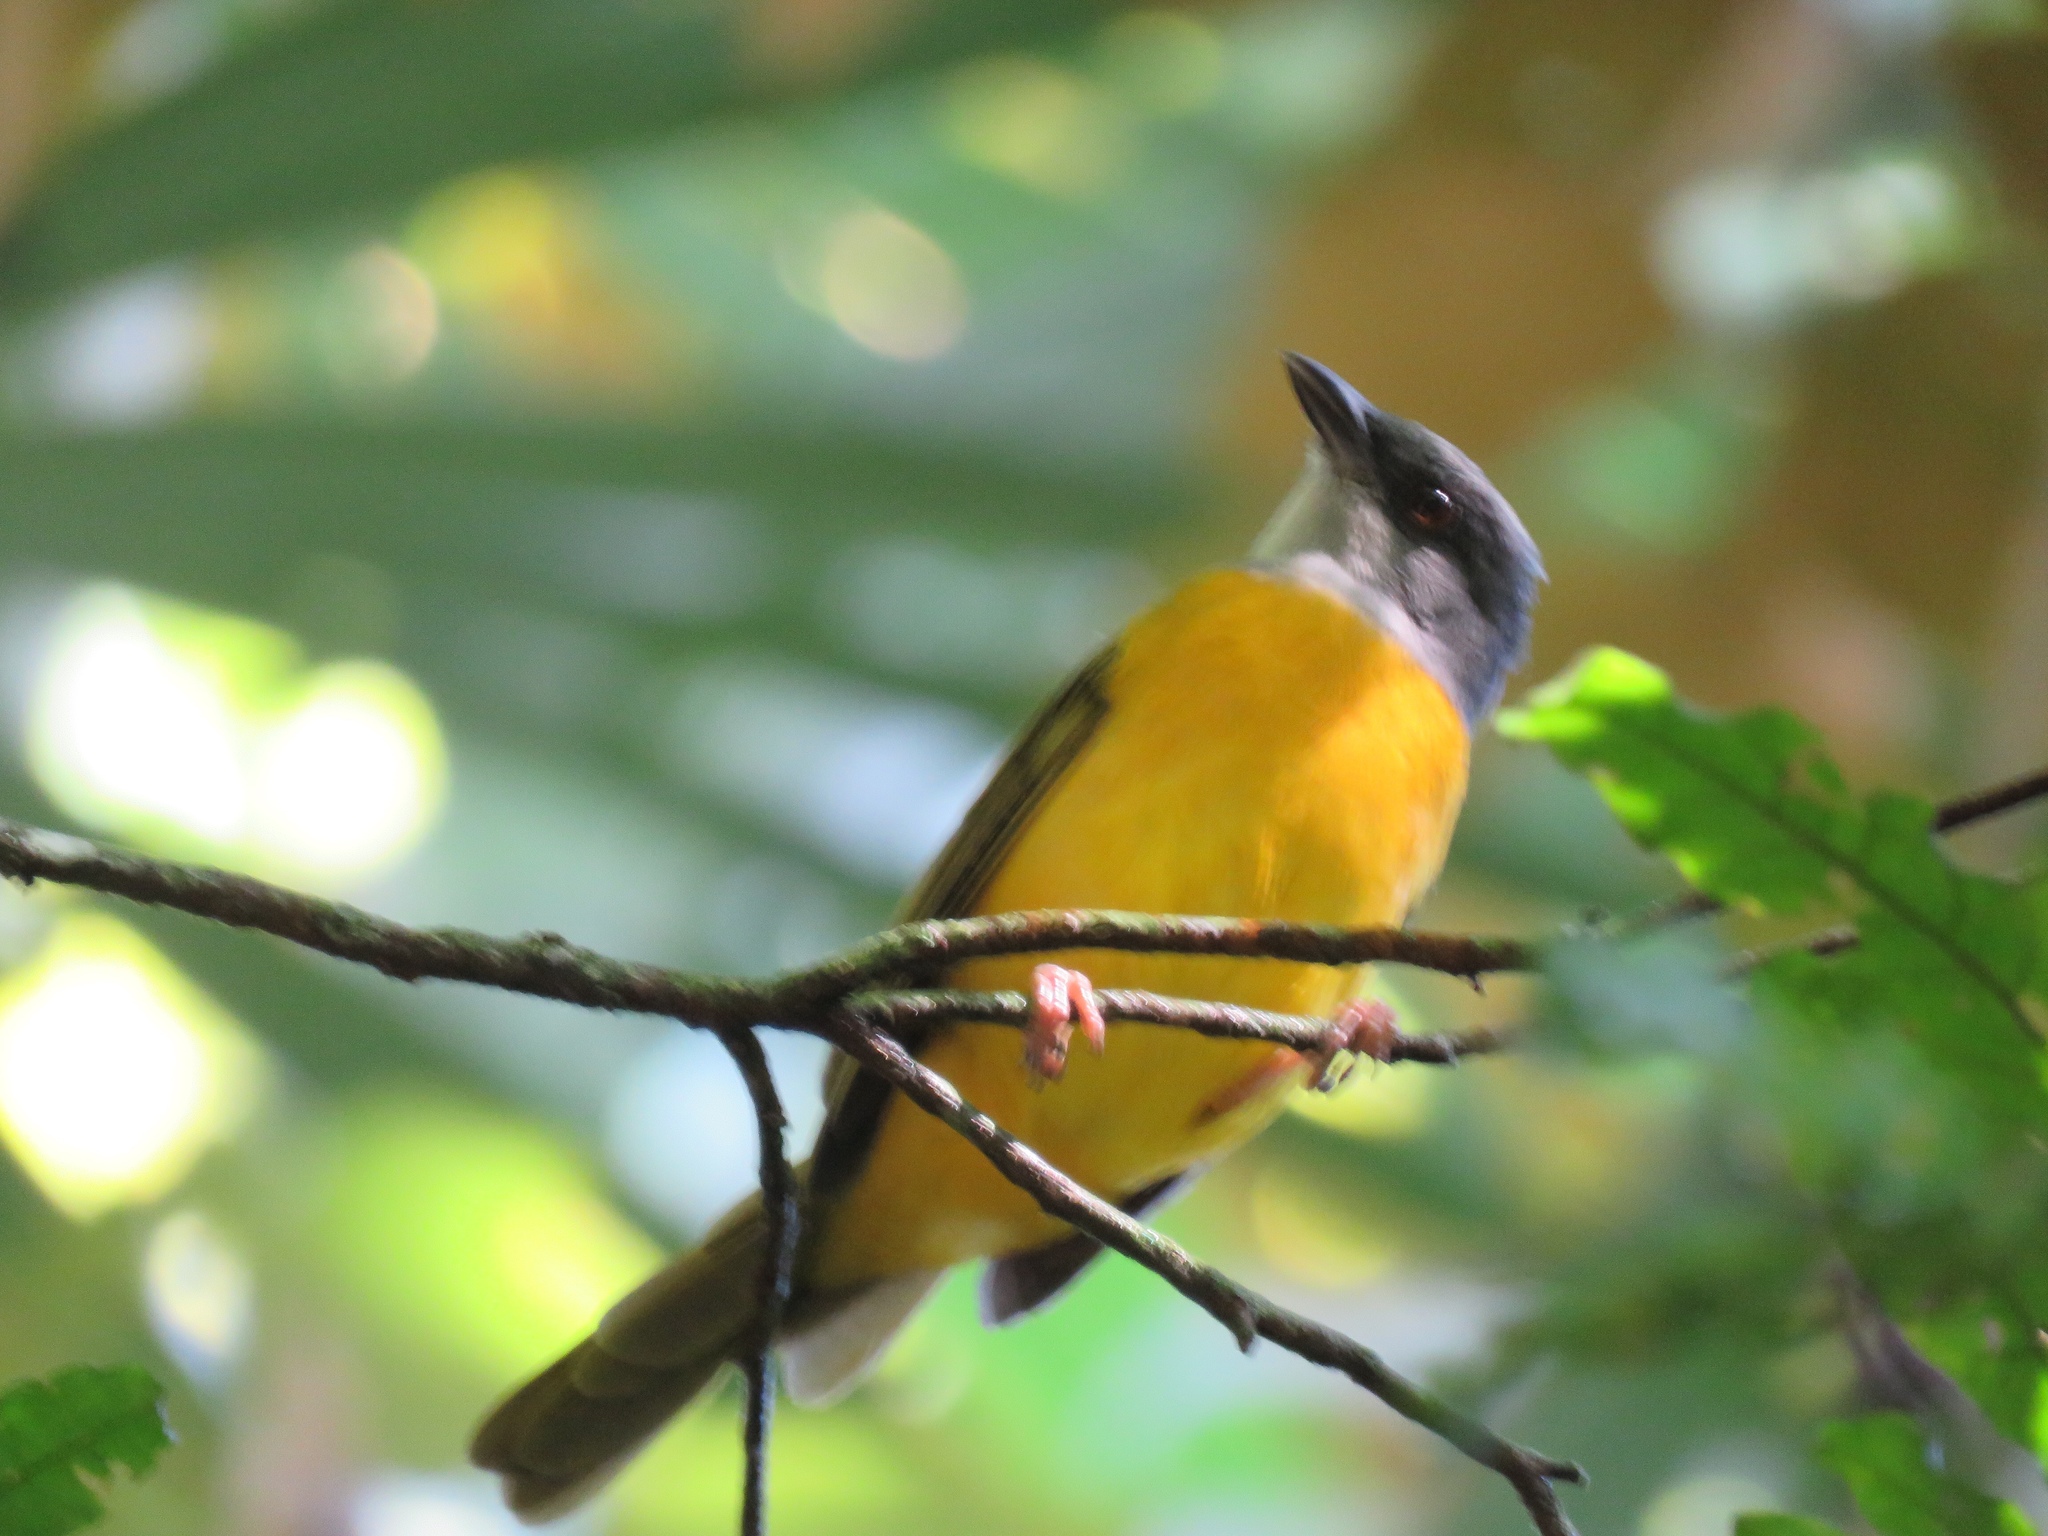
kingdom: Animalia
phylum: Chordata
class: Aves
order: Passeriformes
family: Thraupidae
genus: Eucometis
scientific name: Eucometis penicillata
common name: Grey-headed tanager
